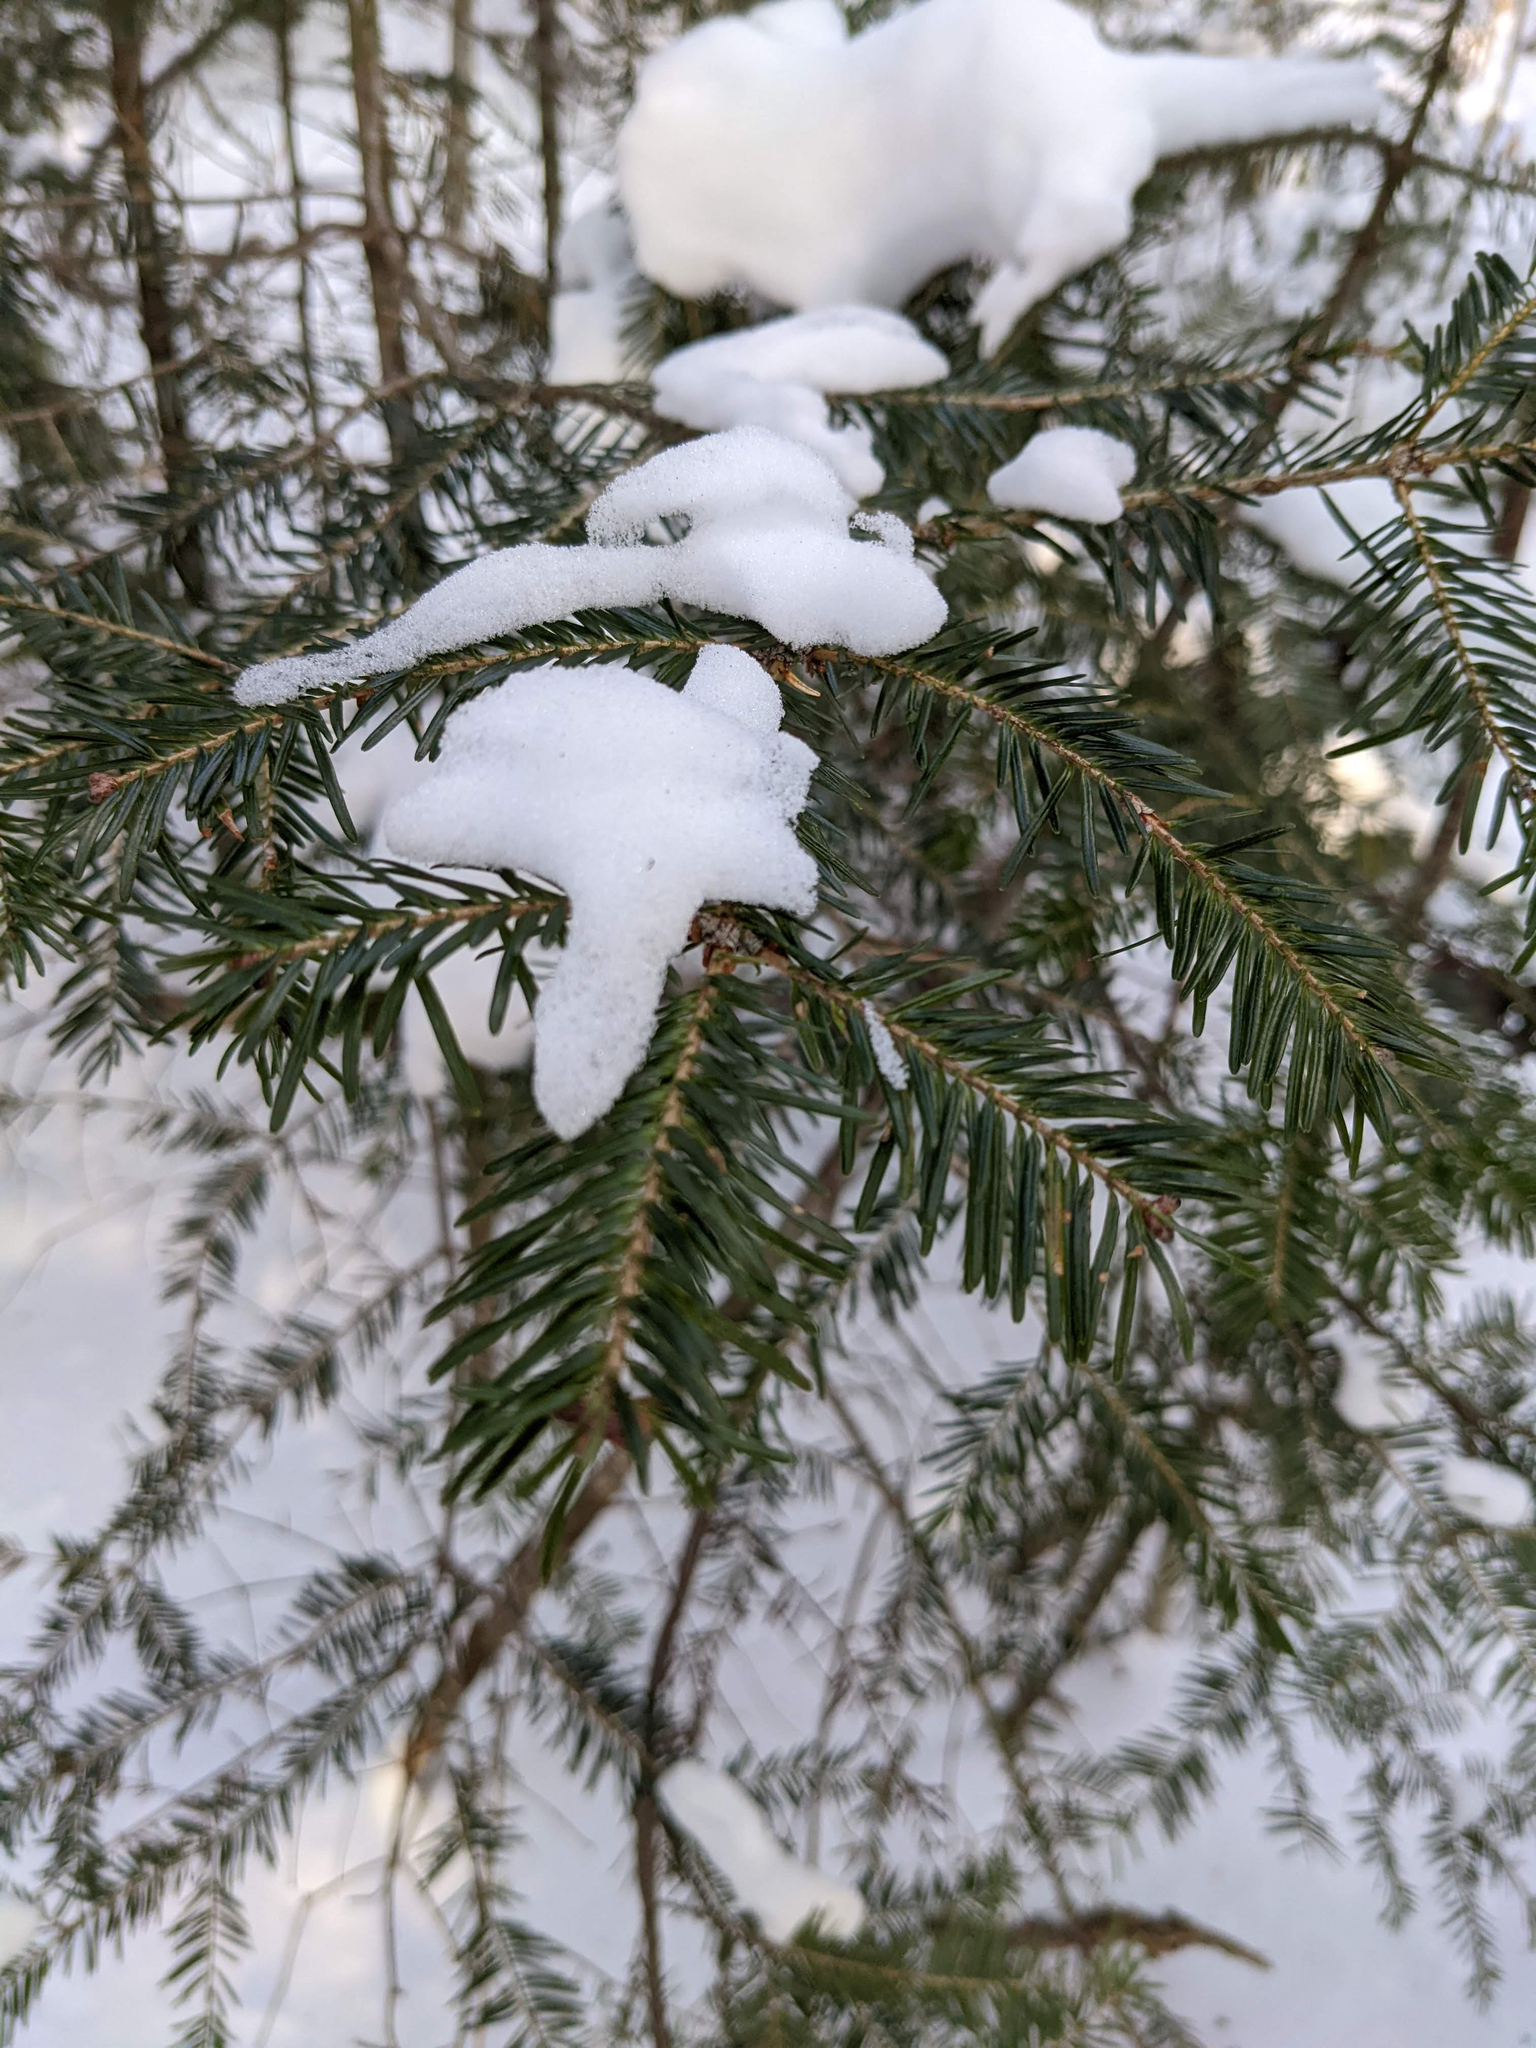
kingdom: Plantae
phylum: Tracheophyta
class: Pinopsida
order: Pinales
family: Pinaceae
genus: Abies
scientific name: Abies balsamea
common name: Balsam fir
